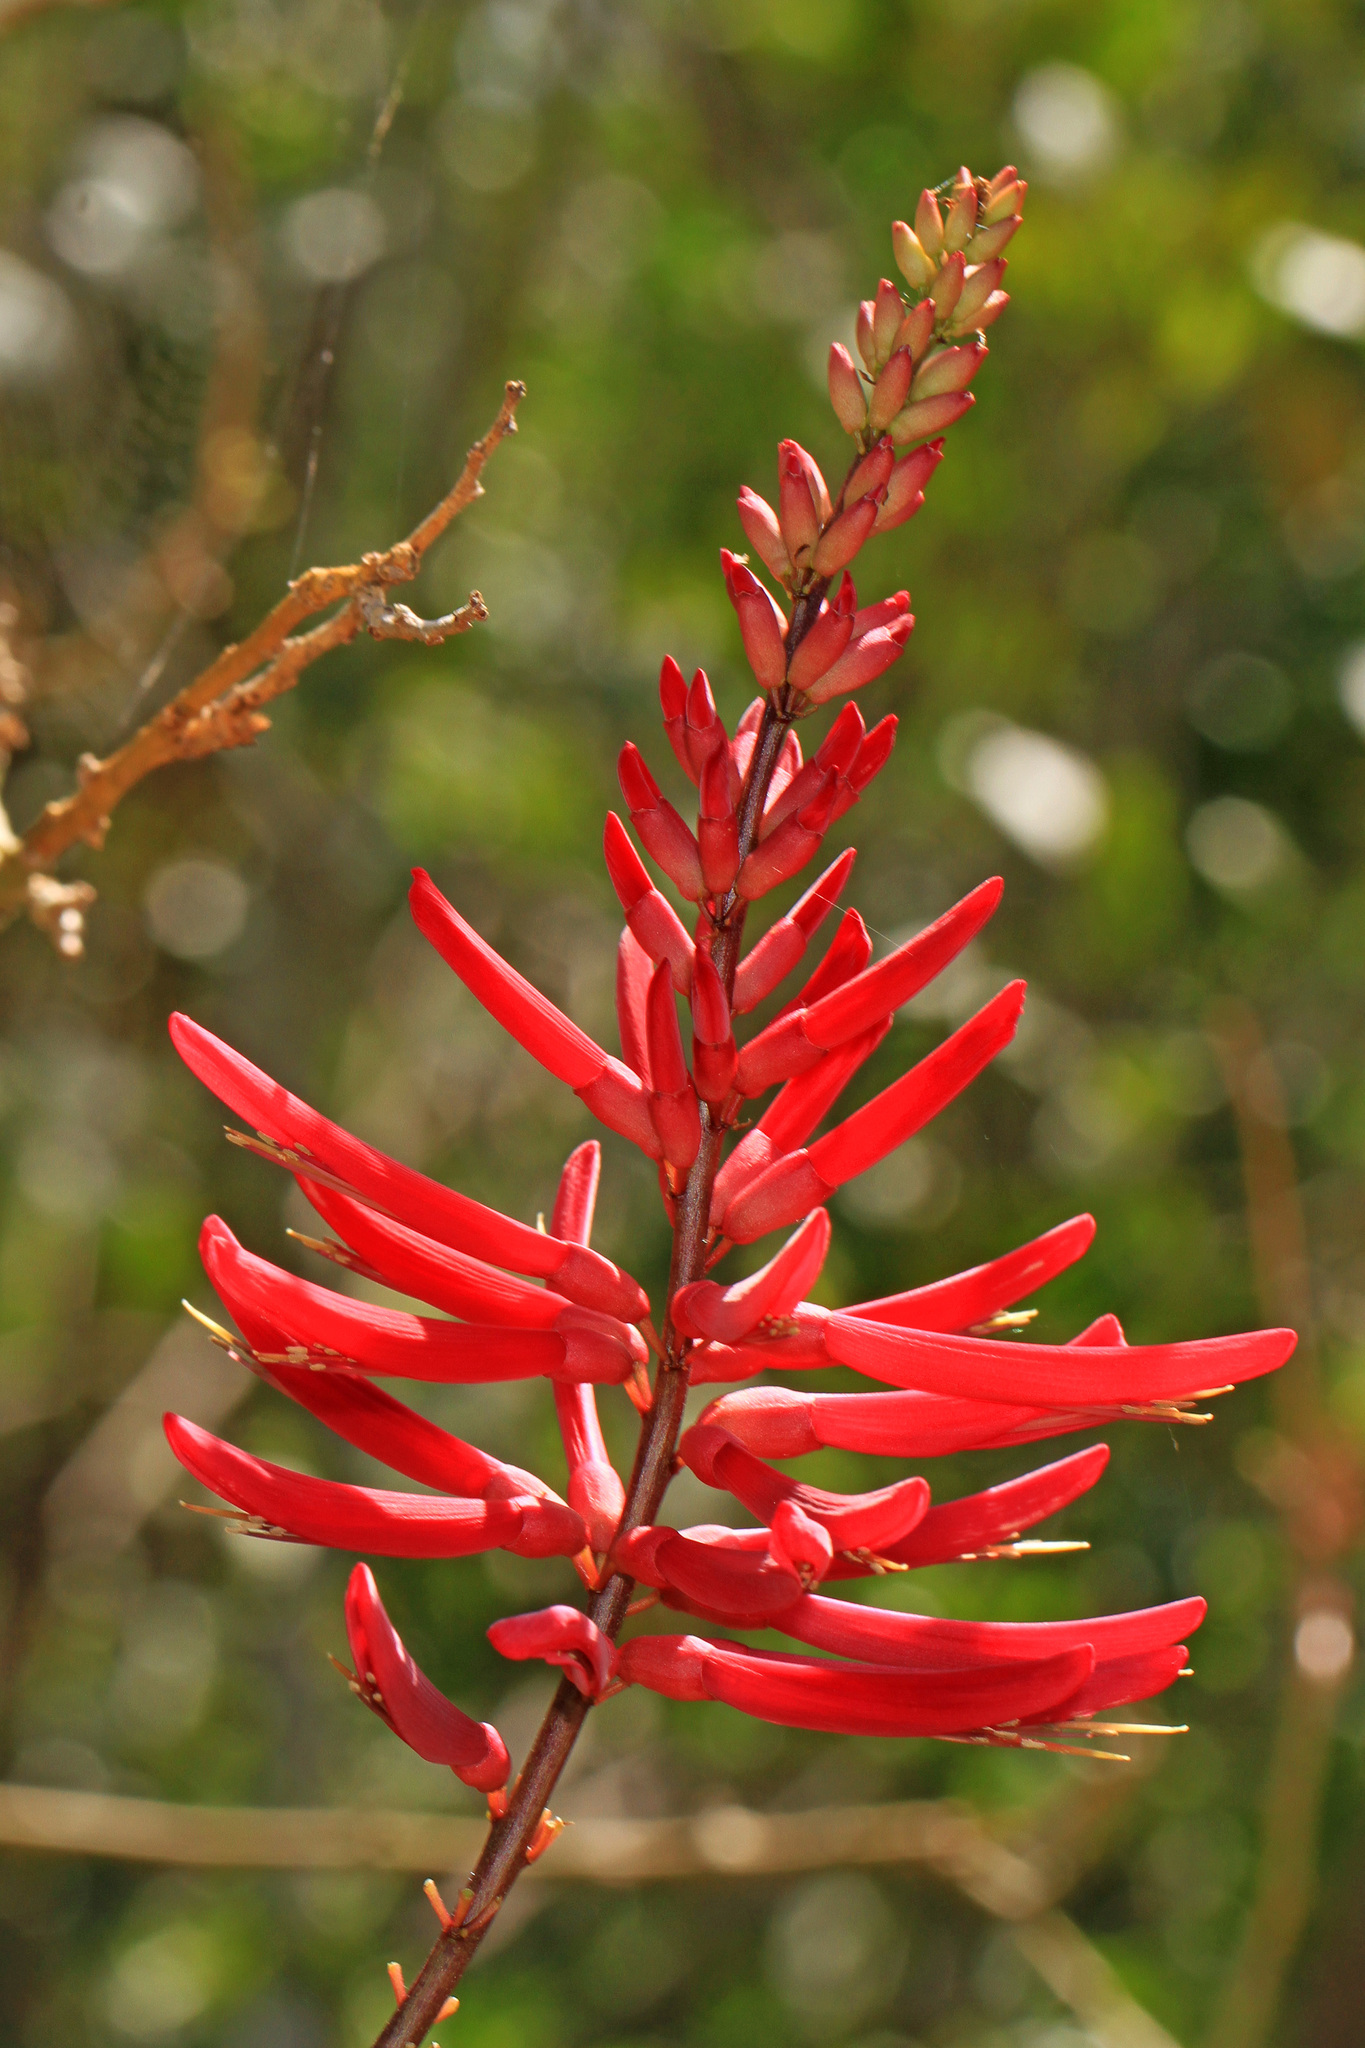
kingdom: Plantae
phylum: Tracheophyta
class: Magnoliopsida
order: Fabales
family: Fabaceae
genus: Erythrina
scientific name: Erythrina herbacea
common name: Coral-bean
